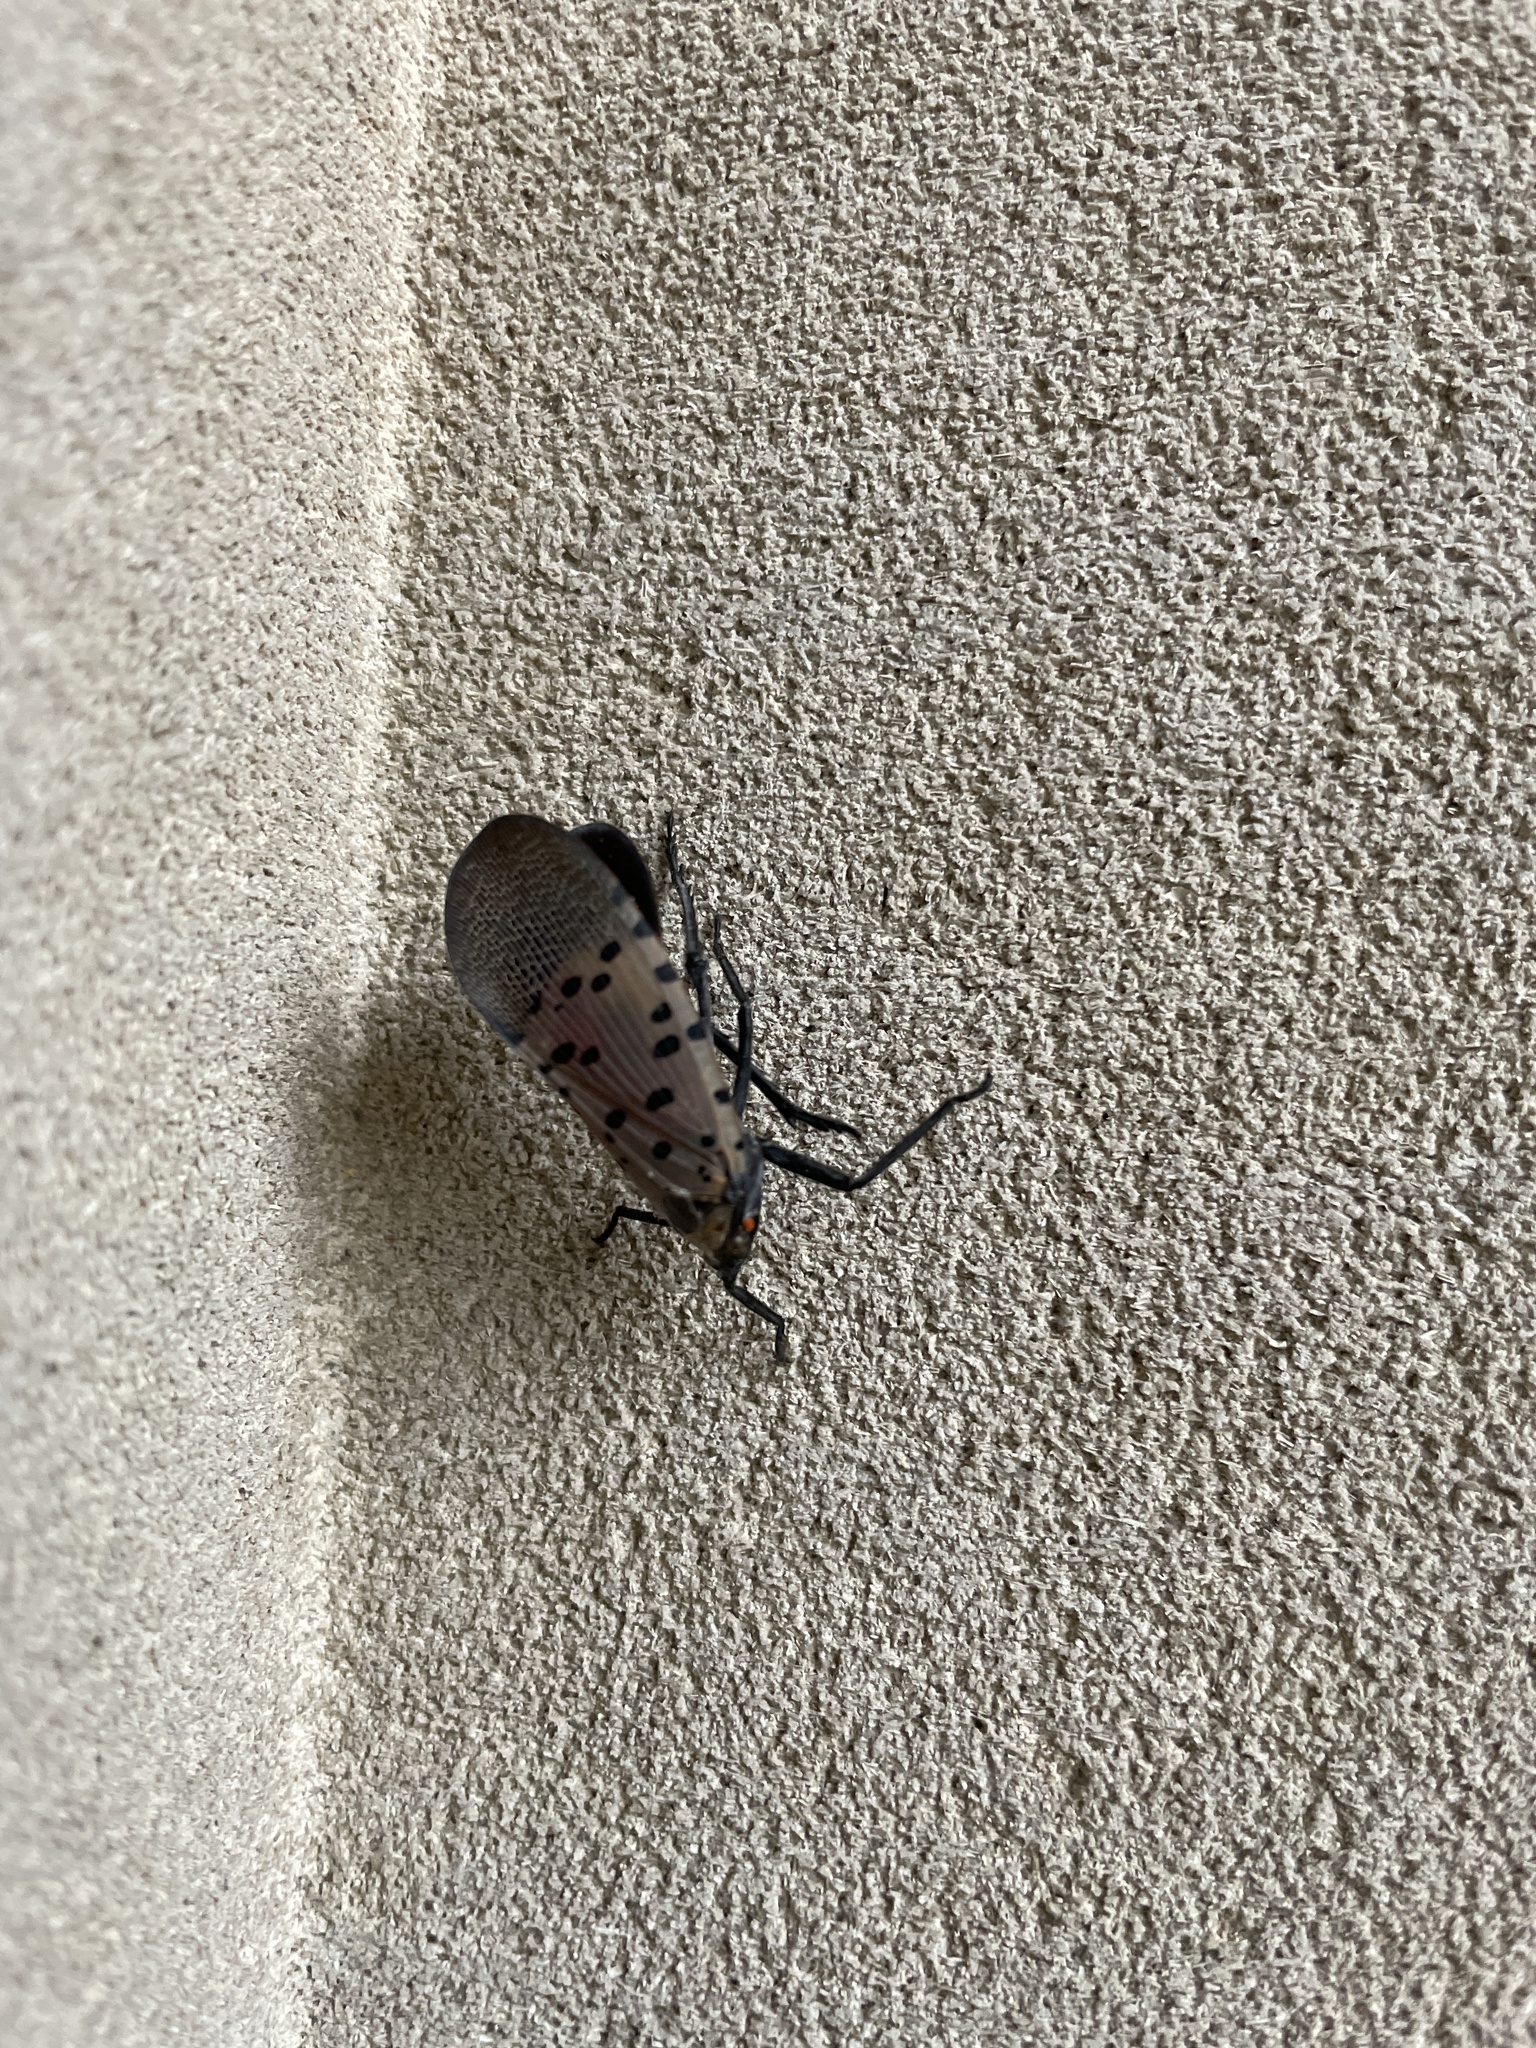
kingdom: Animalia
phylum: Arthropoda
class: Insecta
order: Hemiptera
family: Fulgoridae
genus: Lycorma
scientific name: Lycorma delicatula
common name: Spotted lanternfly
